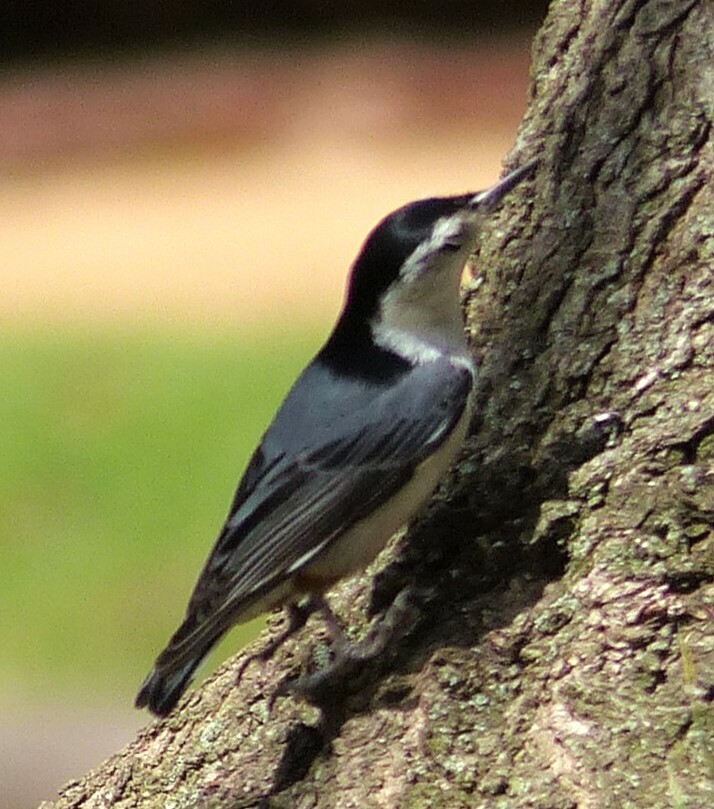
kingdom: Animalia
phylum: Chordata
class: Aves
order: Passeriformes
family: Sittidae
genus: Sitta
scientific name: Sitta carolinensis
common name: White-breasted nuthatch
